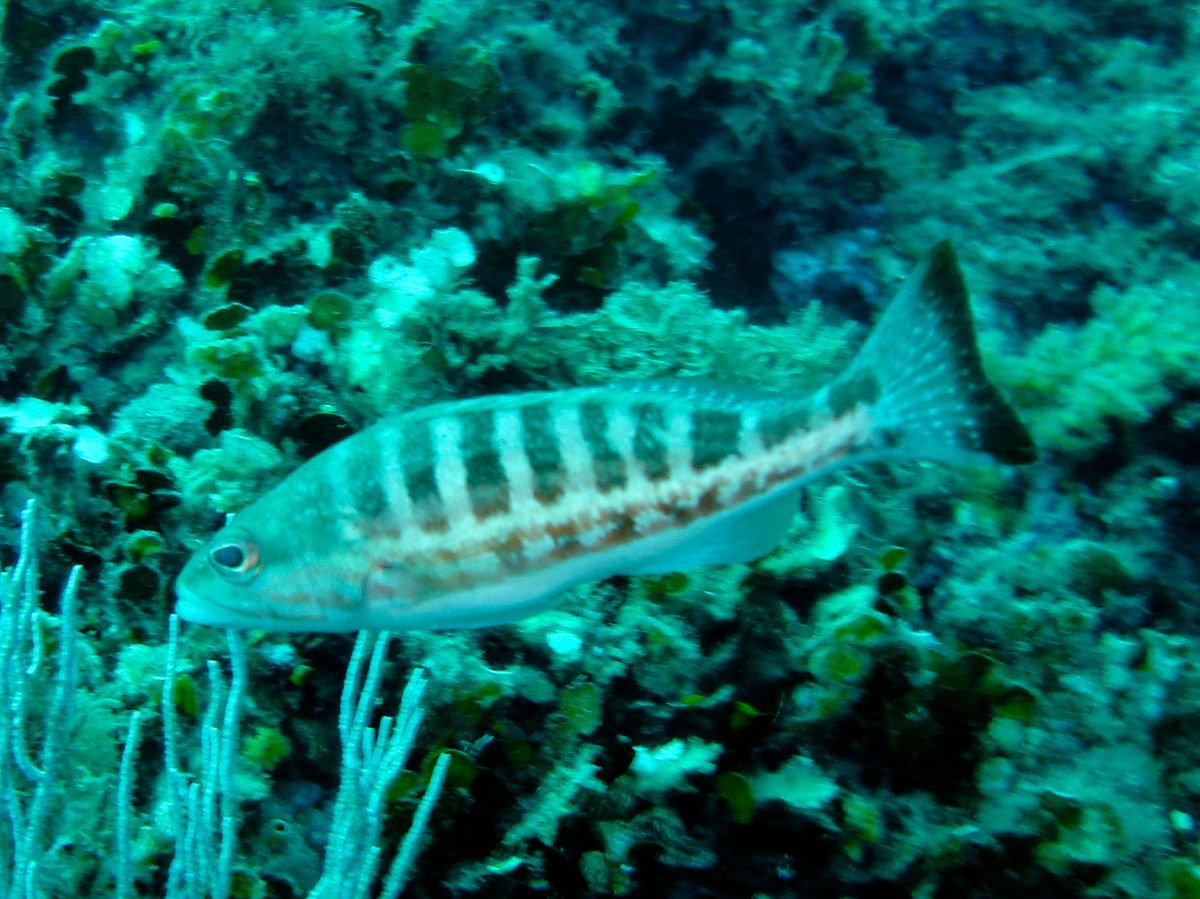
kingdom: Animalia
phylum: Chordata
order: Perciformes
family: Serranidae
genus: Serranus
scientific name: Serranus cabrilla
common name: Comber
